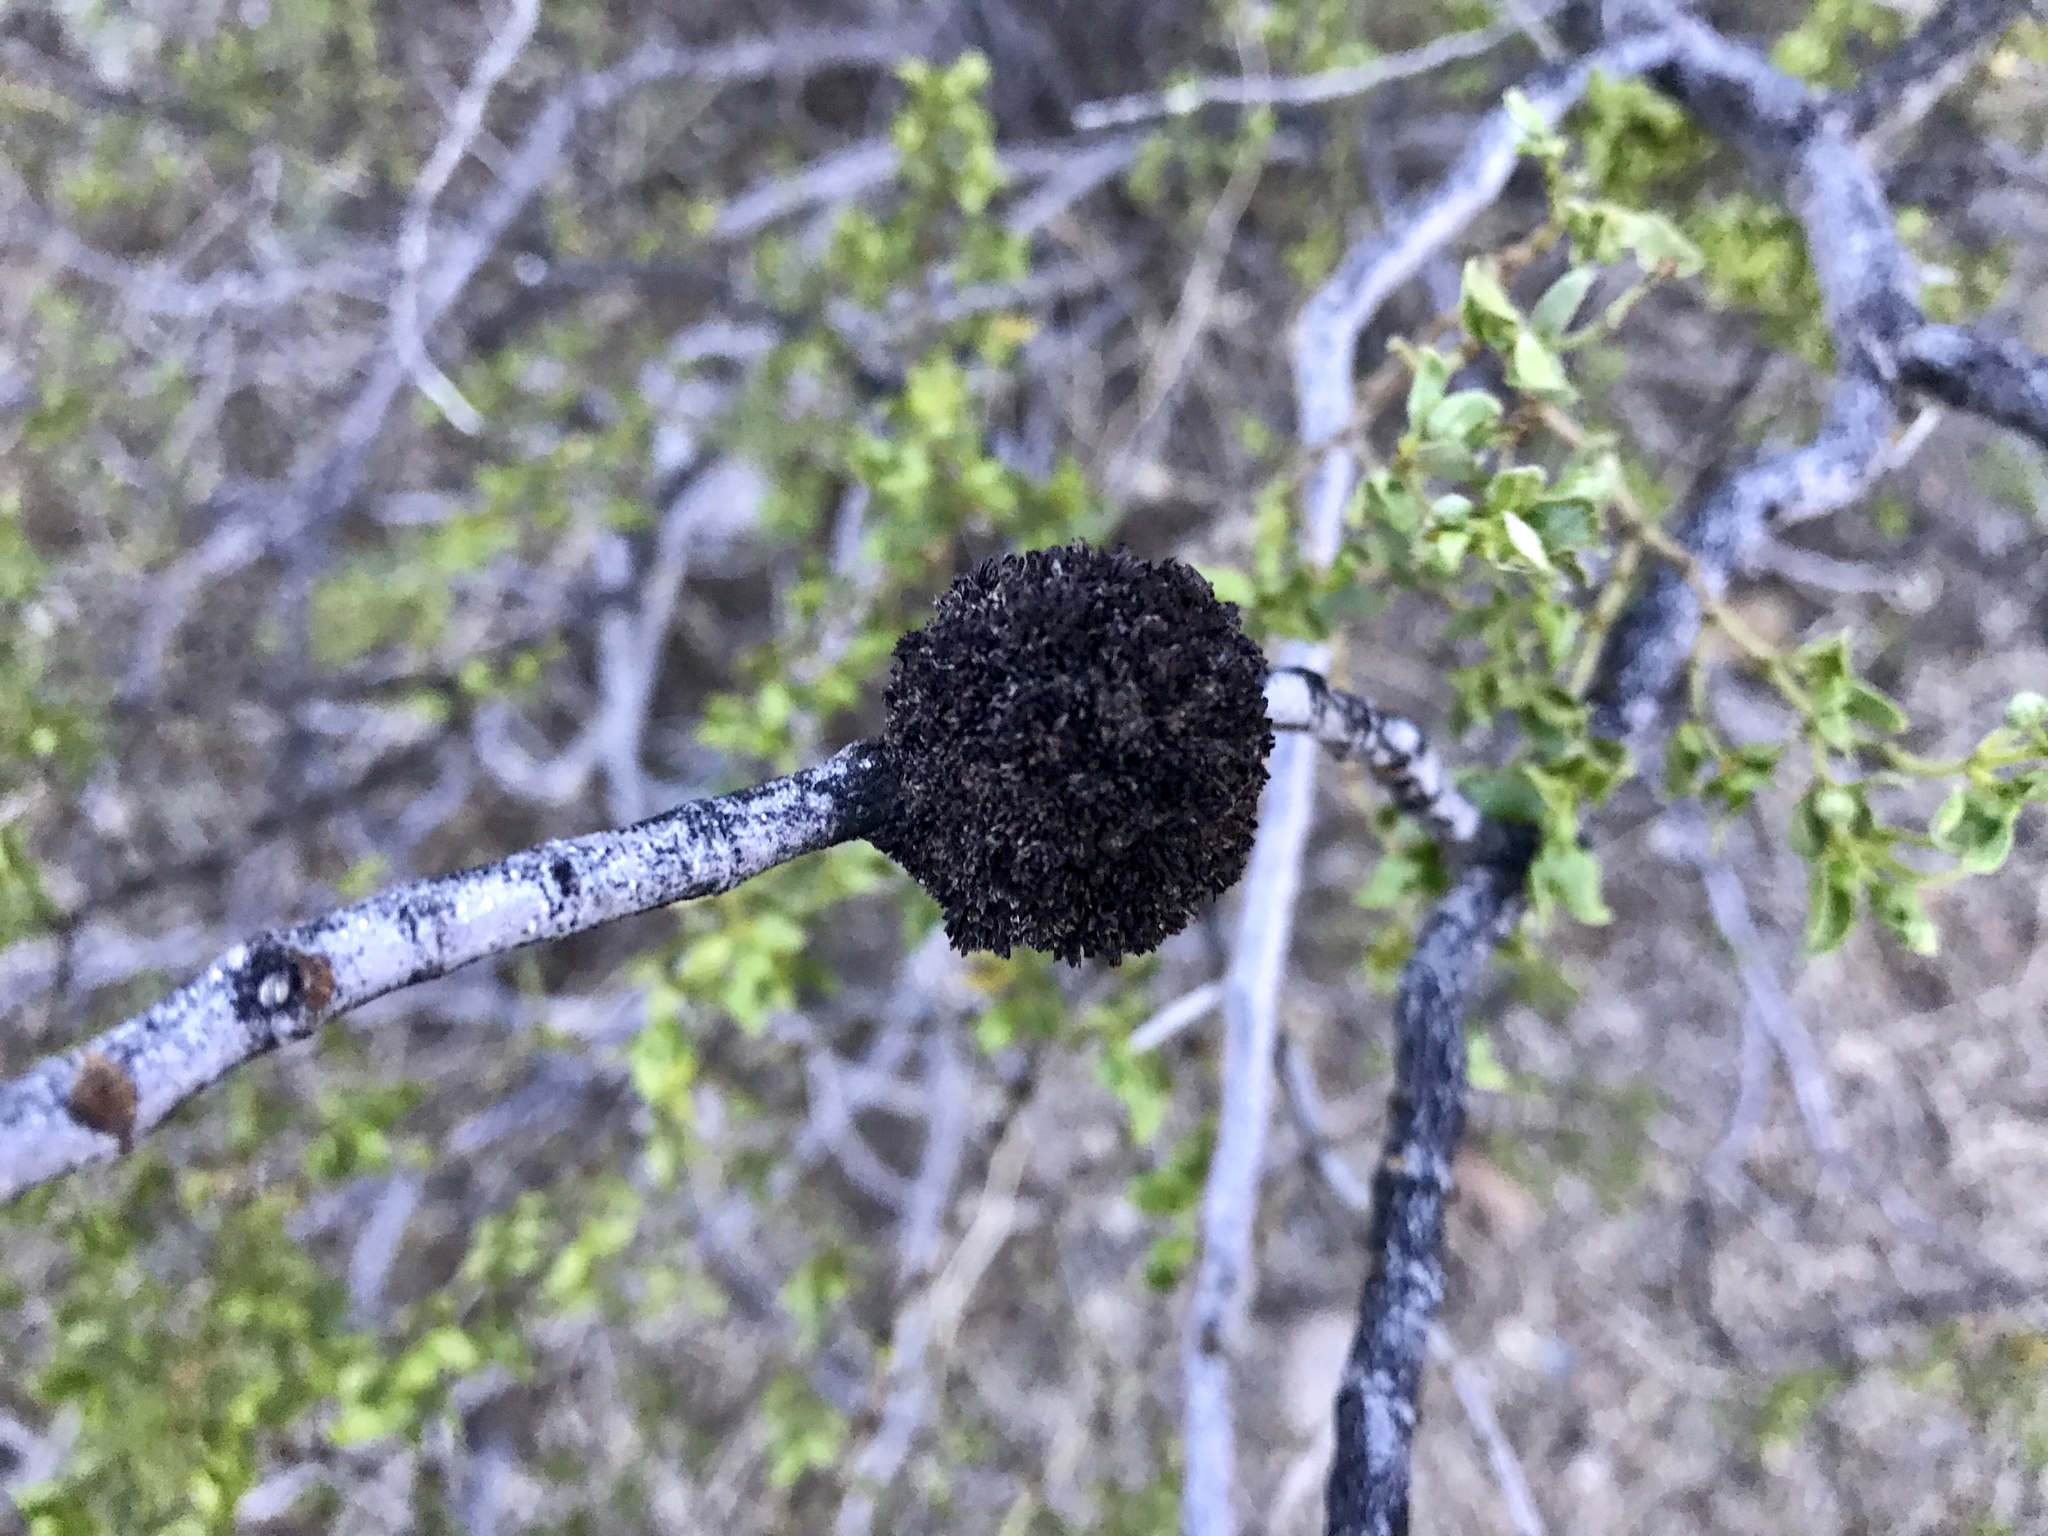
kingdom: Animalia
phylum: Arthropoda
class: Insecta
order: Diptera
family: Cecidomyiidae
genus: Asphondylia
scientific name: Asphondylia auripila
